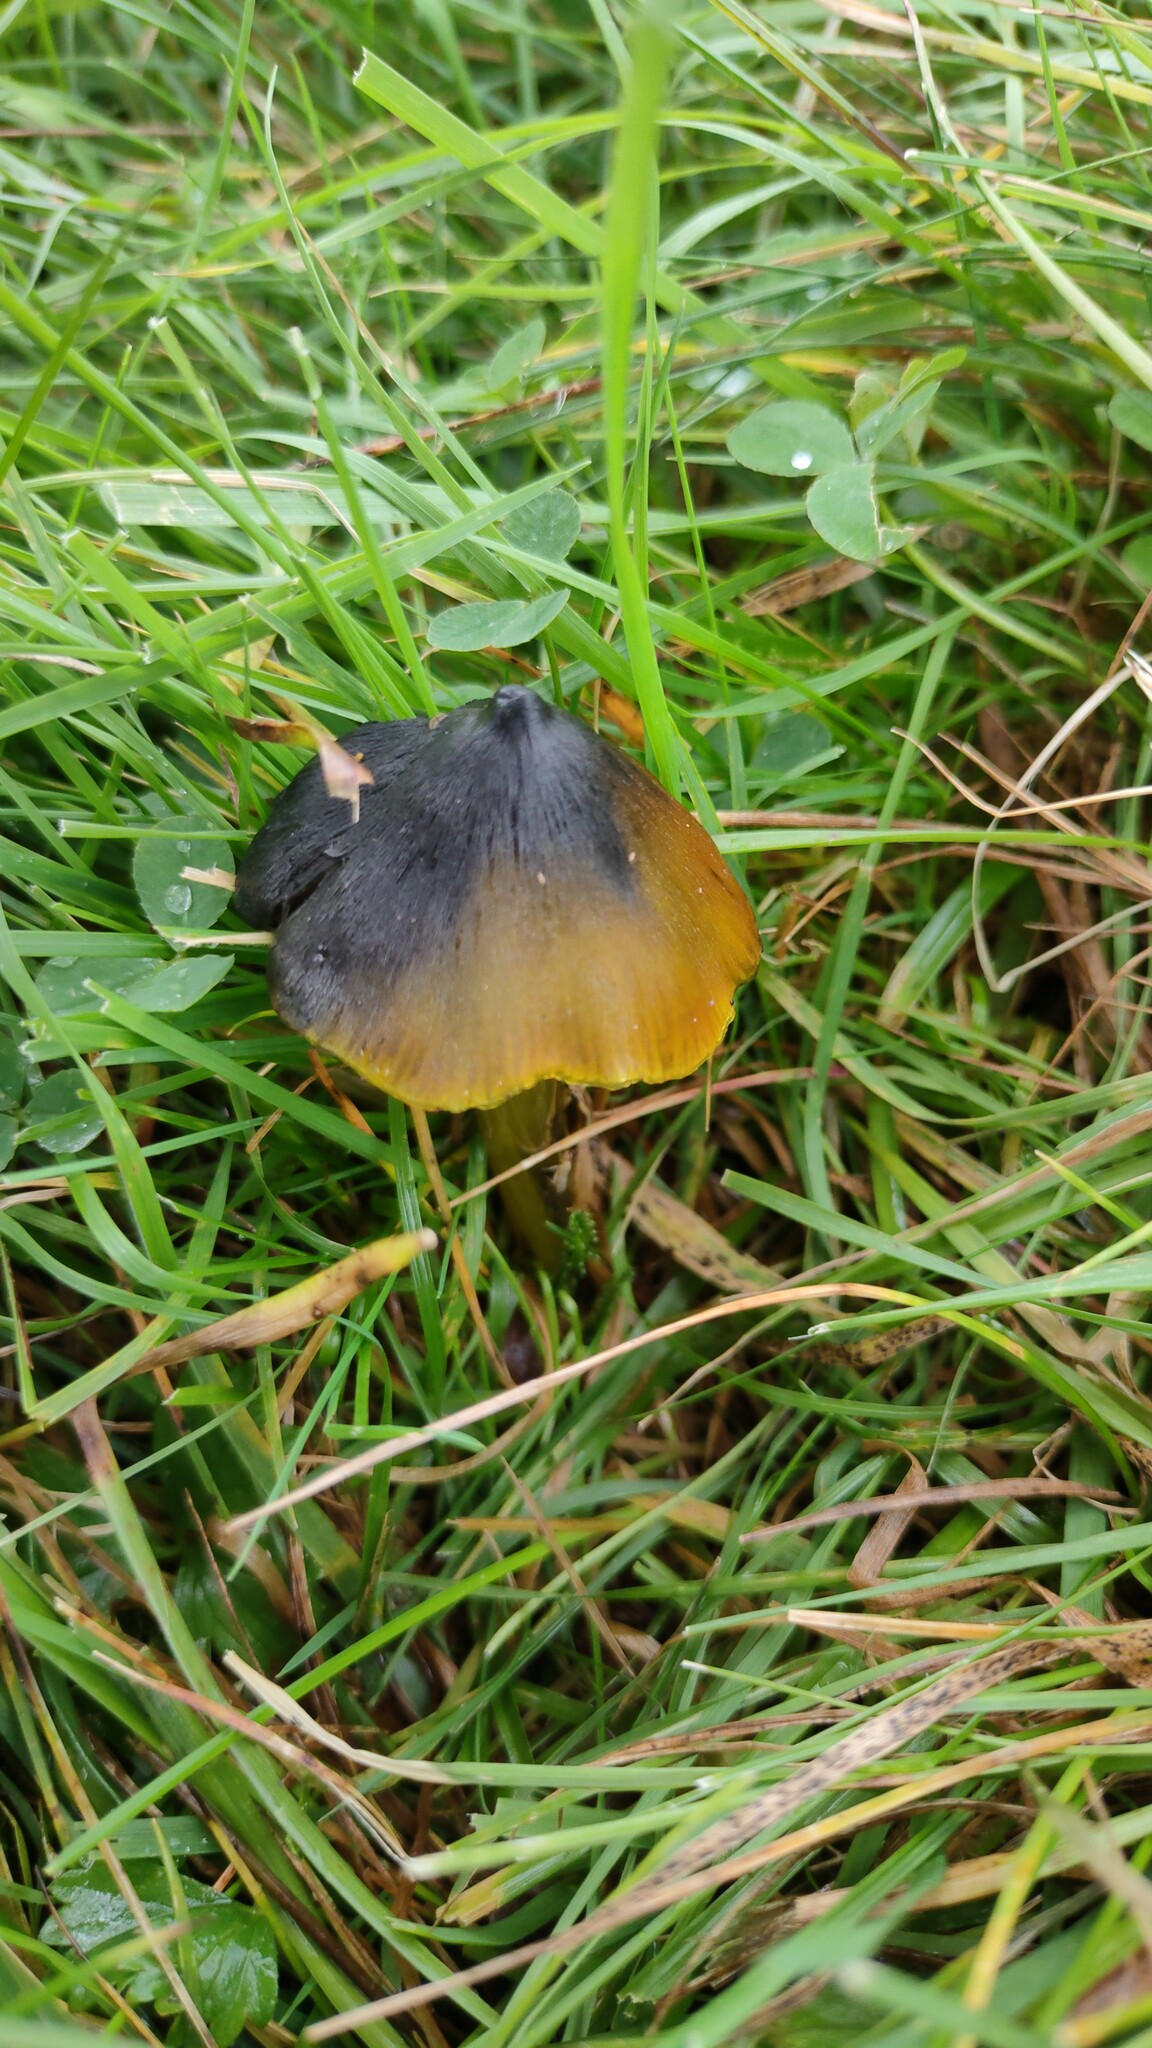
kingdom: Fungi
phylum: Basidiomycota
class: Agaricomycetes
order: Agaricales
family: Hygrophoraceae
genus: Hygrocybe
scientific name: Hygrocybe conica
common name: Blackening wax-cap
